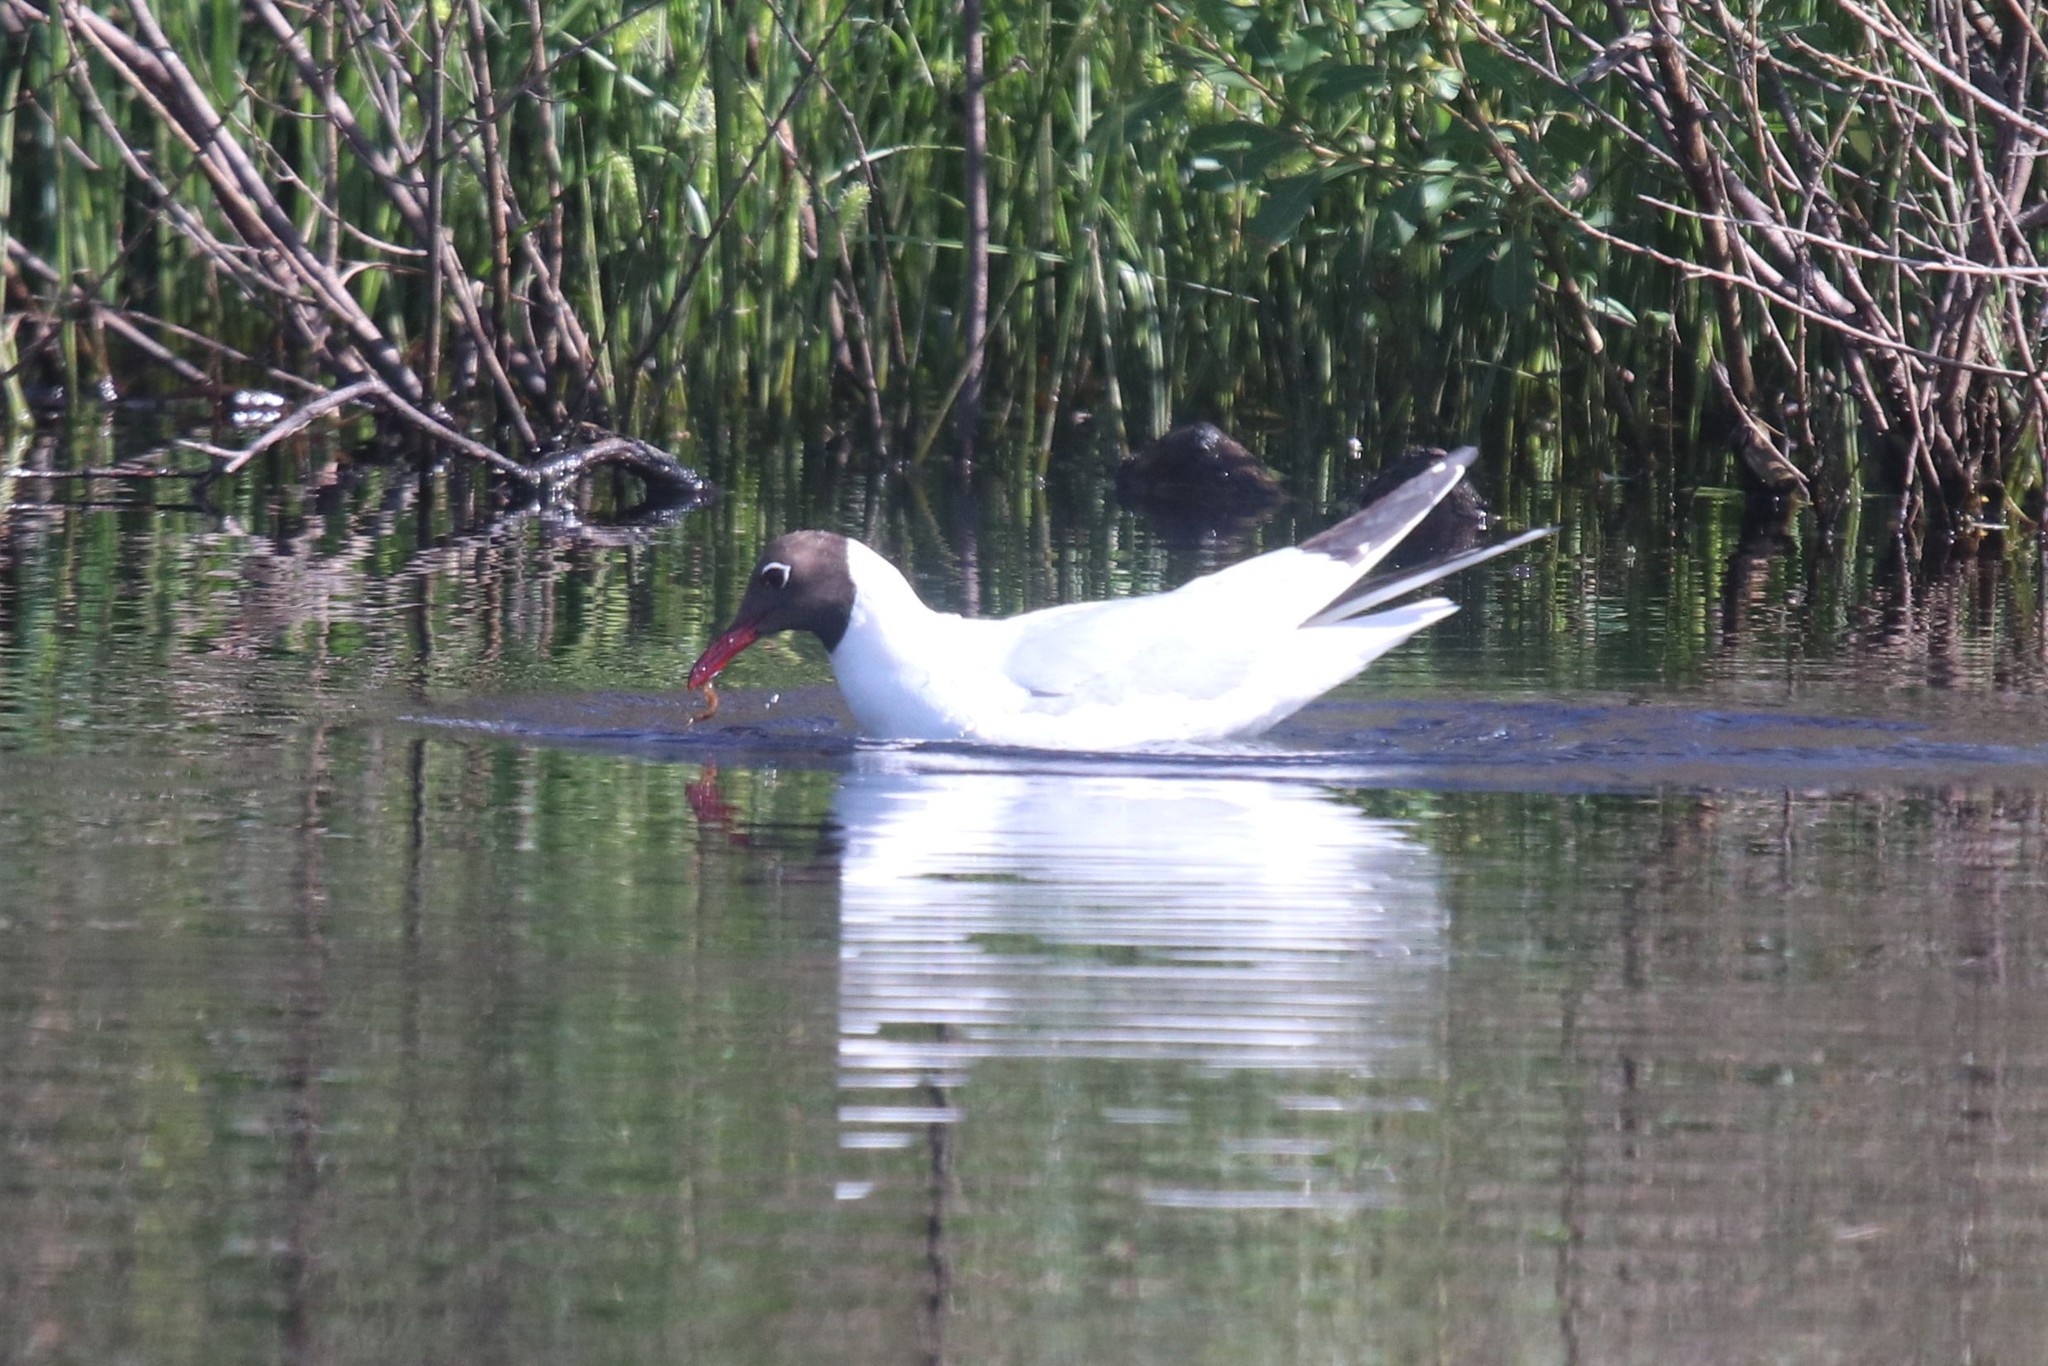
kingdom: Animalia
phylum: Chordata
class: Aves
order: Charadriiformes
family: Laridae
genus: Chroicocephalus
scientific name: Chroicocephalus ridibundus
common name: Black-headed gull
